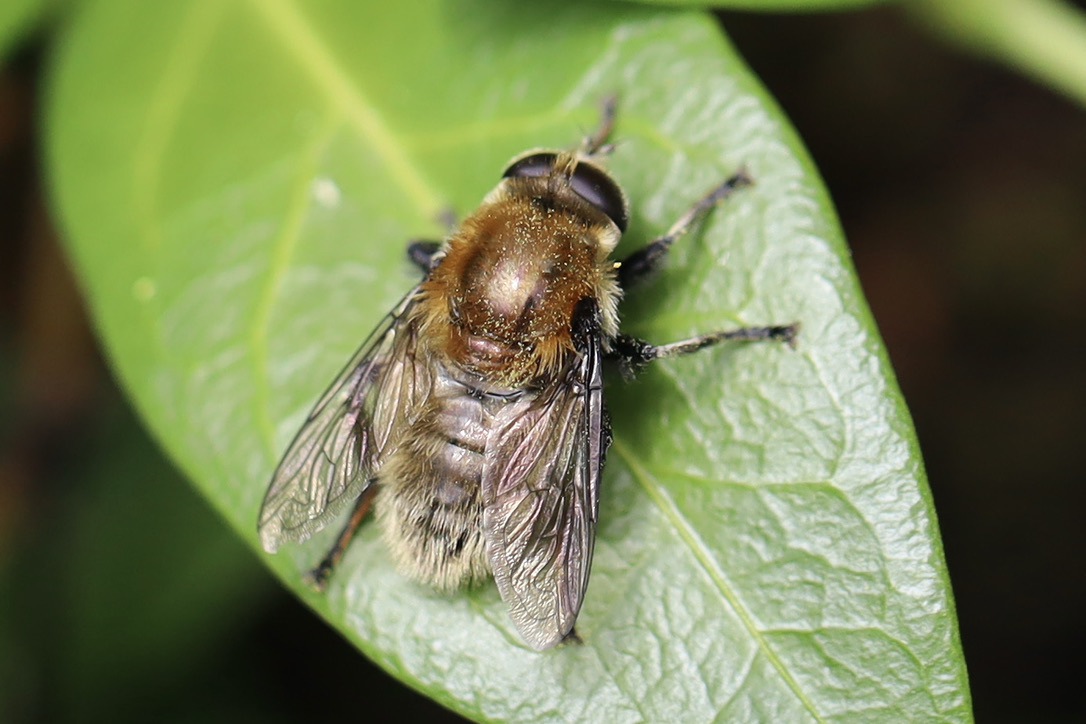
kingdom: Animalia
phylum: Arthropoda
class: Insecta
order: Diptera
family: Syrphidae
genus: Merodon
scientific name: Merodon equestris
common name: Greater bulb-fly
